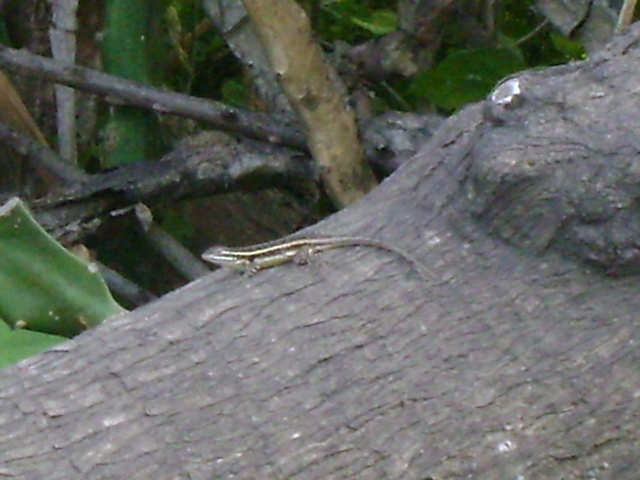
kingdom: Animalia
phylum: Chordata
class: Squamata
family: Phrynosomatidae
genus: Sceloporus
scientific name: Sceloporus variabilis
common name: Rosebelly lizard
